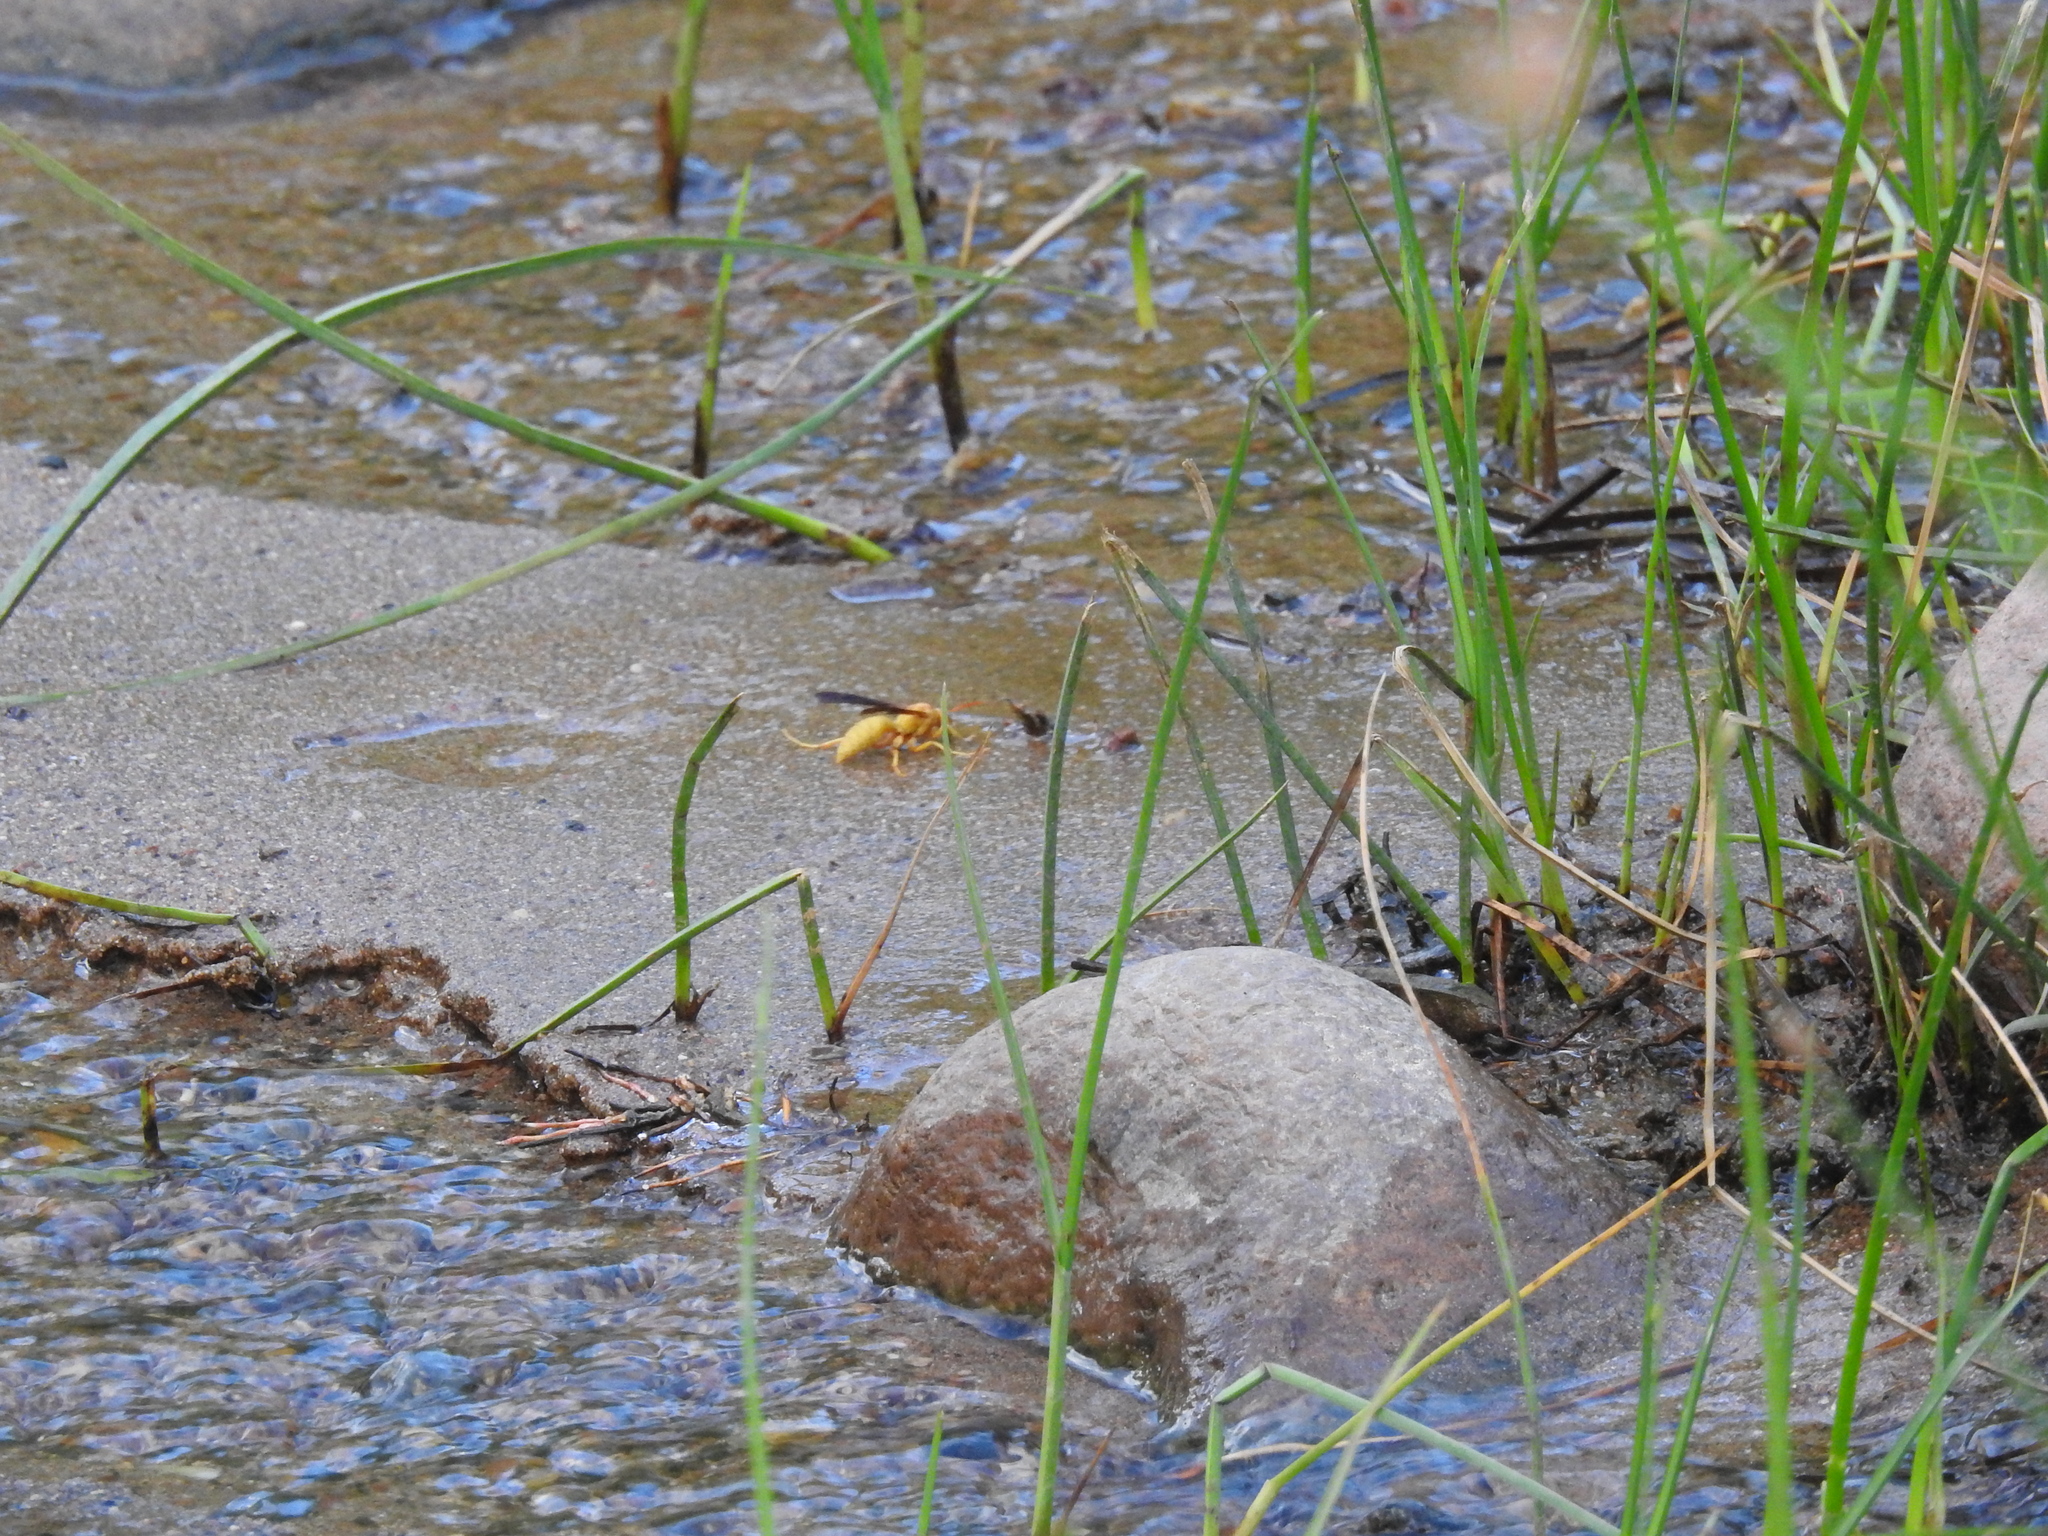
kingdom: Animalia
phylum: Arthropoda
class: Insecta
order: Hymenoptera
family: Eumenidae
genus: Polistes
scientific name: Polistes flavus
